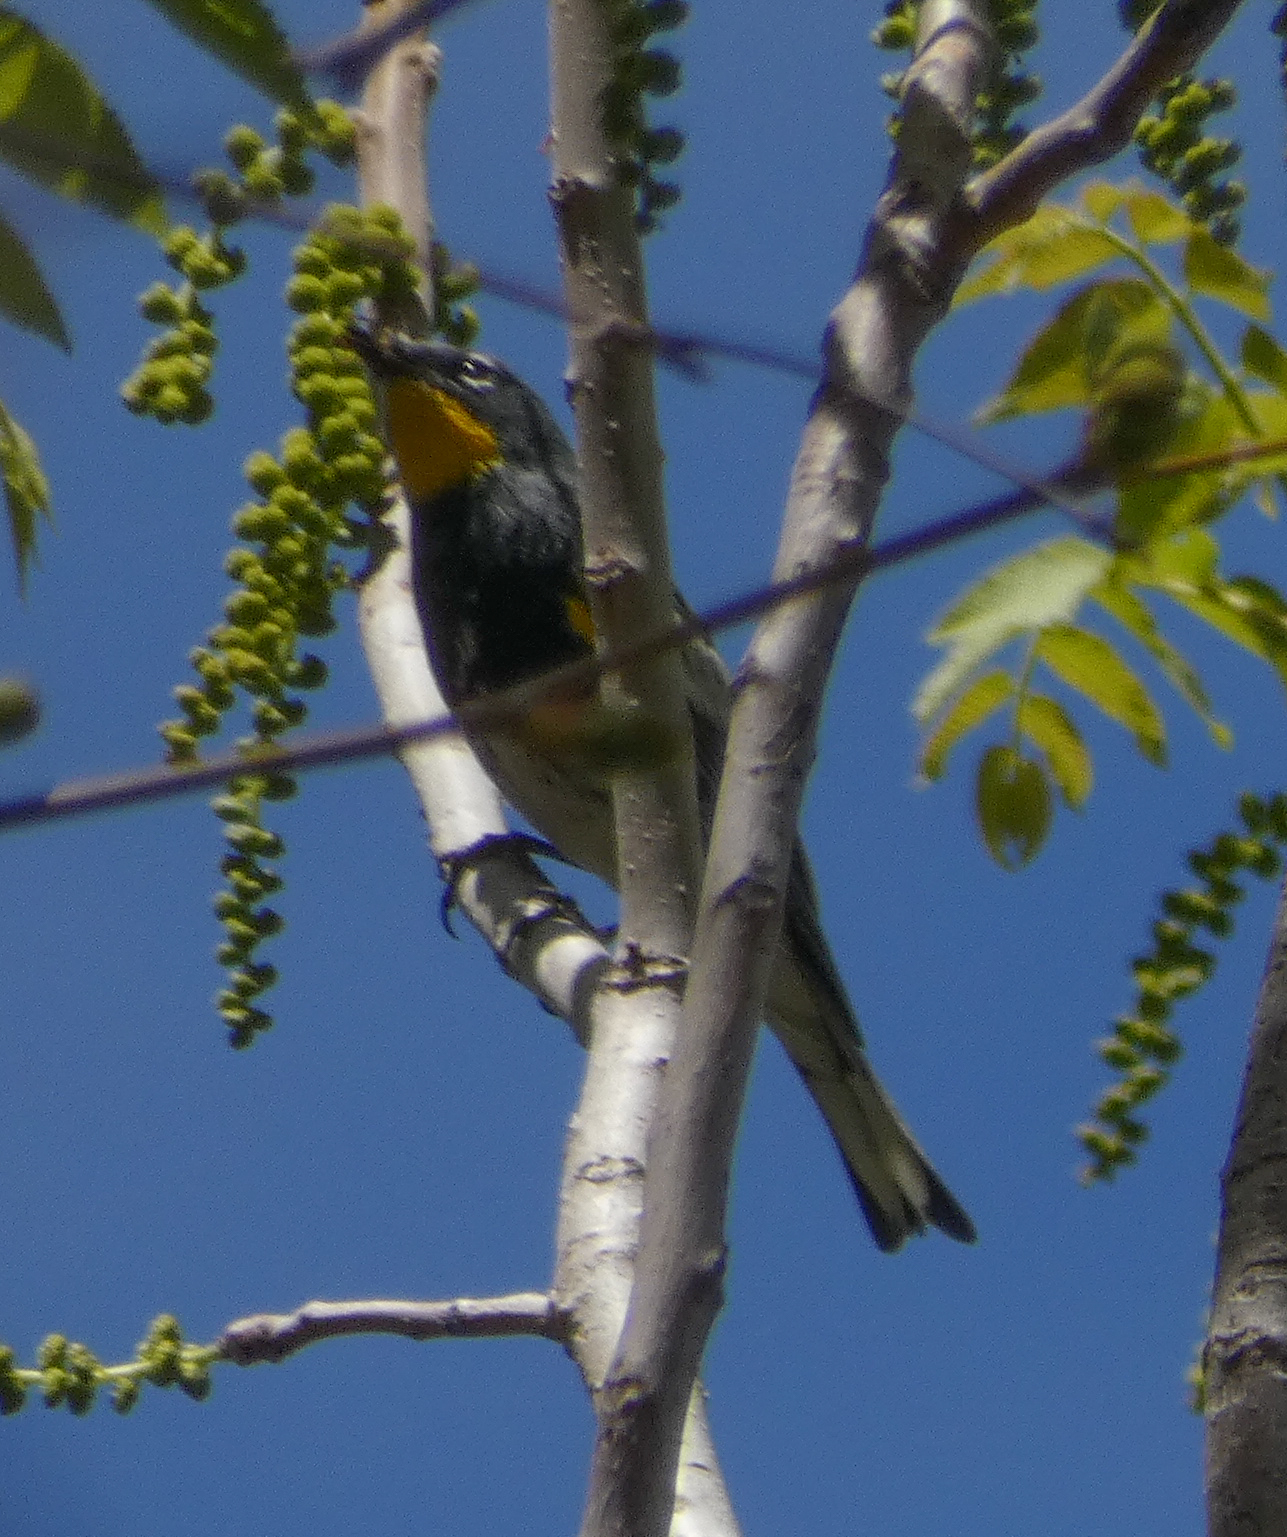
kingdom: Animalia
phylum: Chordata
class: Aves
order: Passeriformes
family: Parulidae
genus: Setophaga
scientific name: Setophaga coronata
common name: Myrtle warbler
